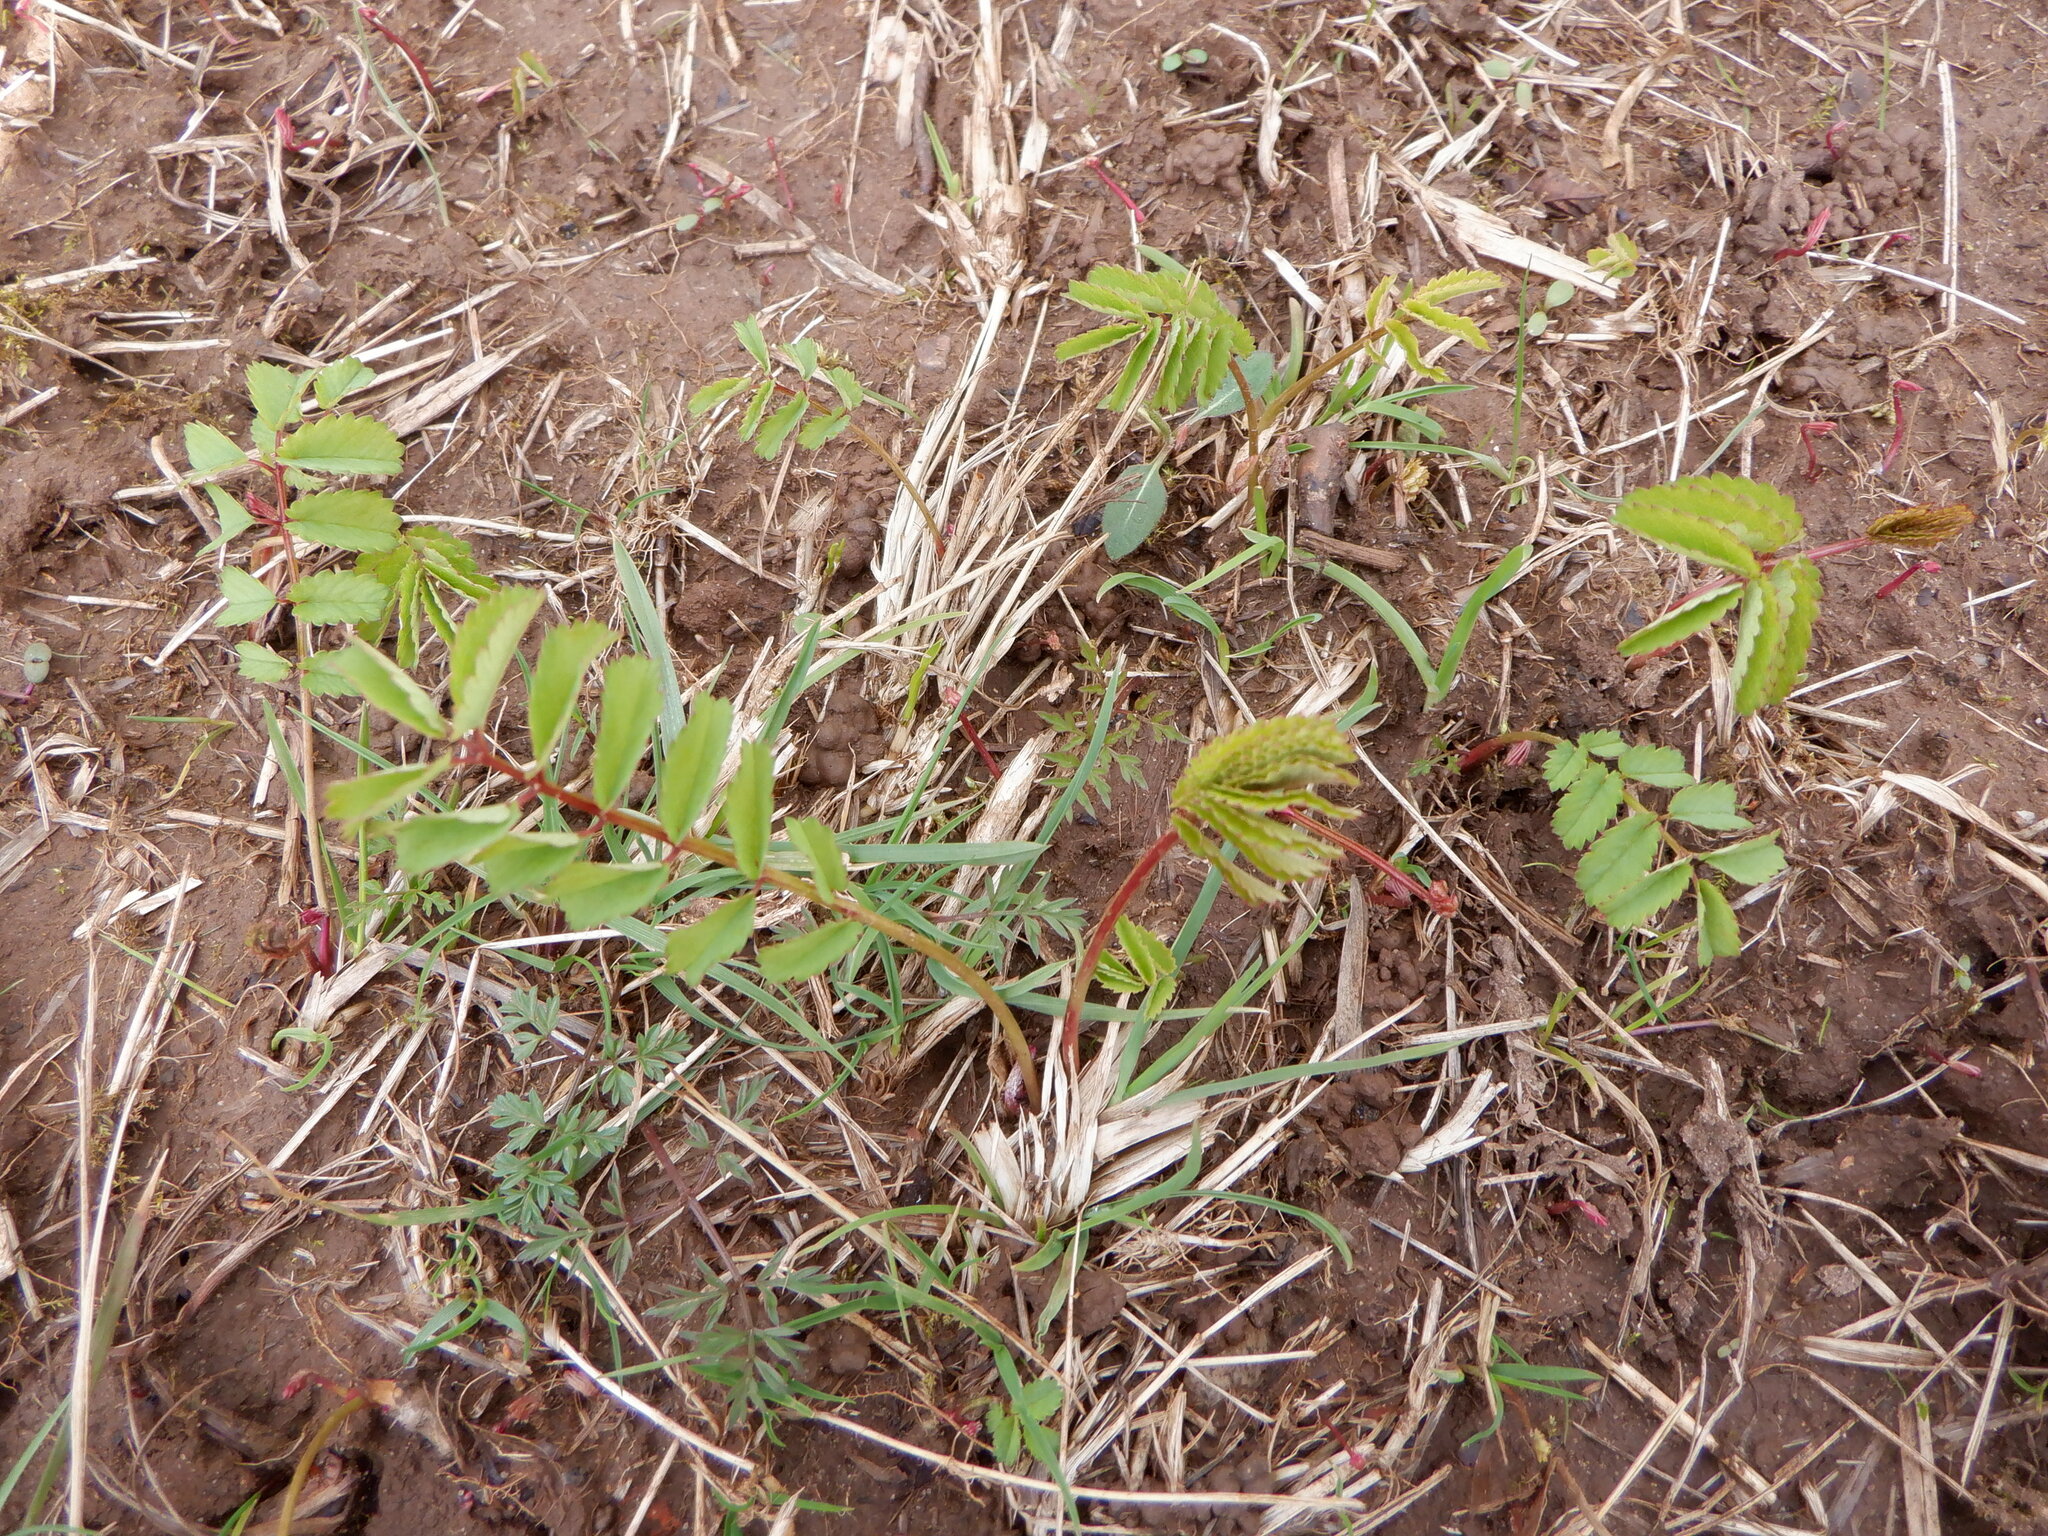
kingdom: Plantae
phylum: Tracheophyta
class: Magnoliopsida
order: Rosales
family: Rosaceae
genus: Sanguisorba
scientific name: Sanguisorba officinalis
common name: Great burnet
